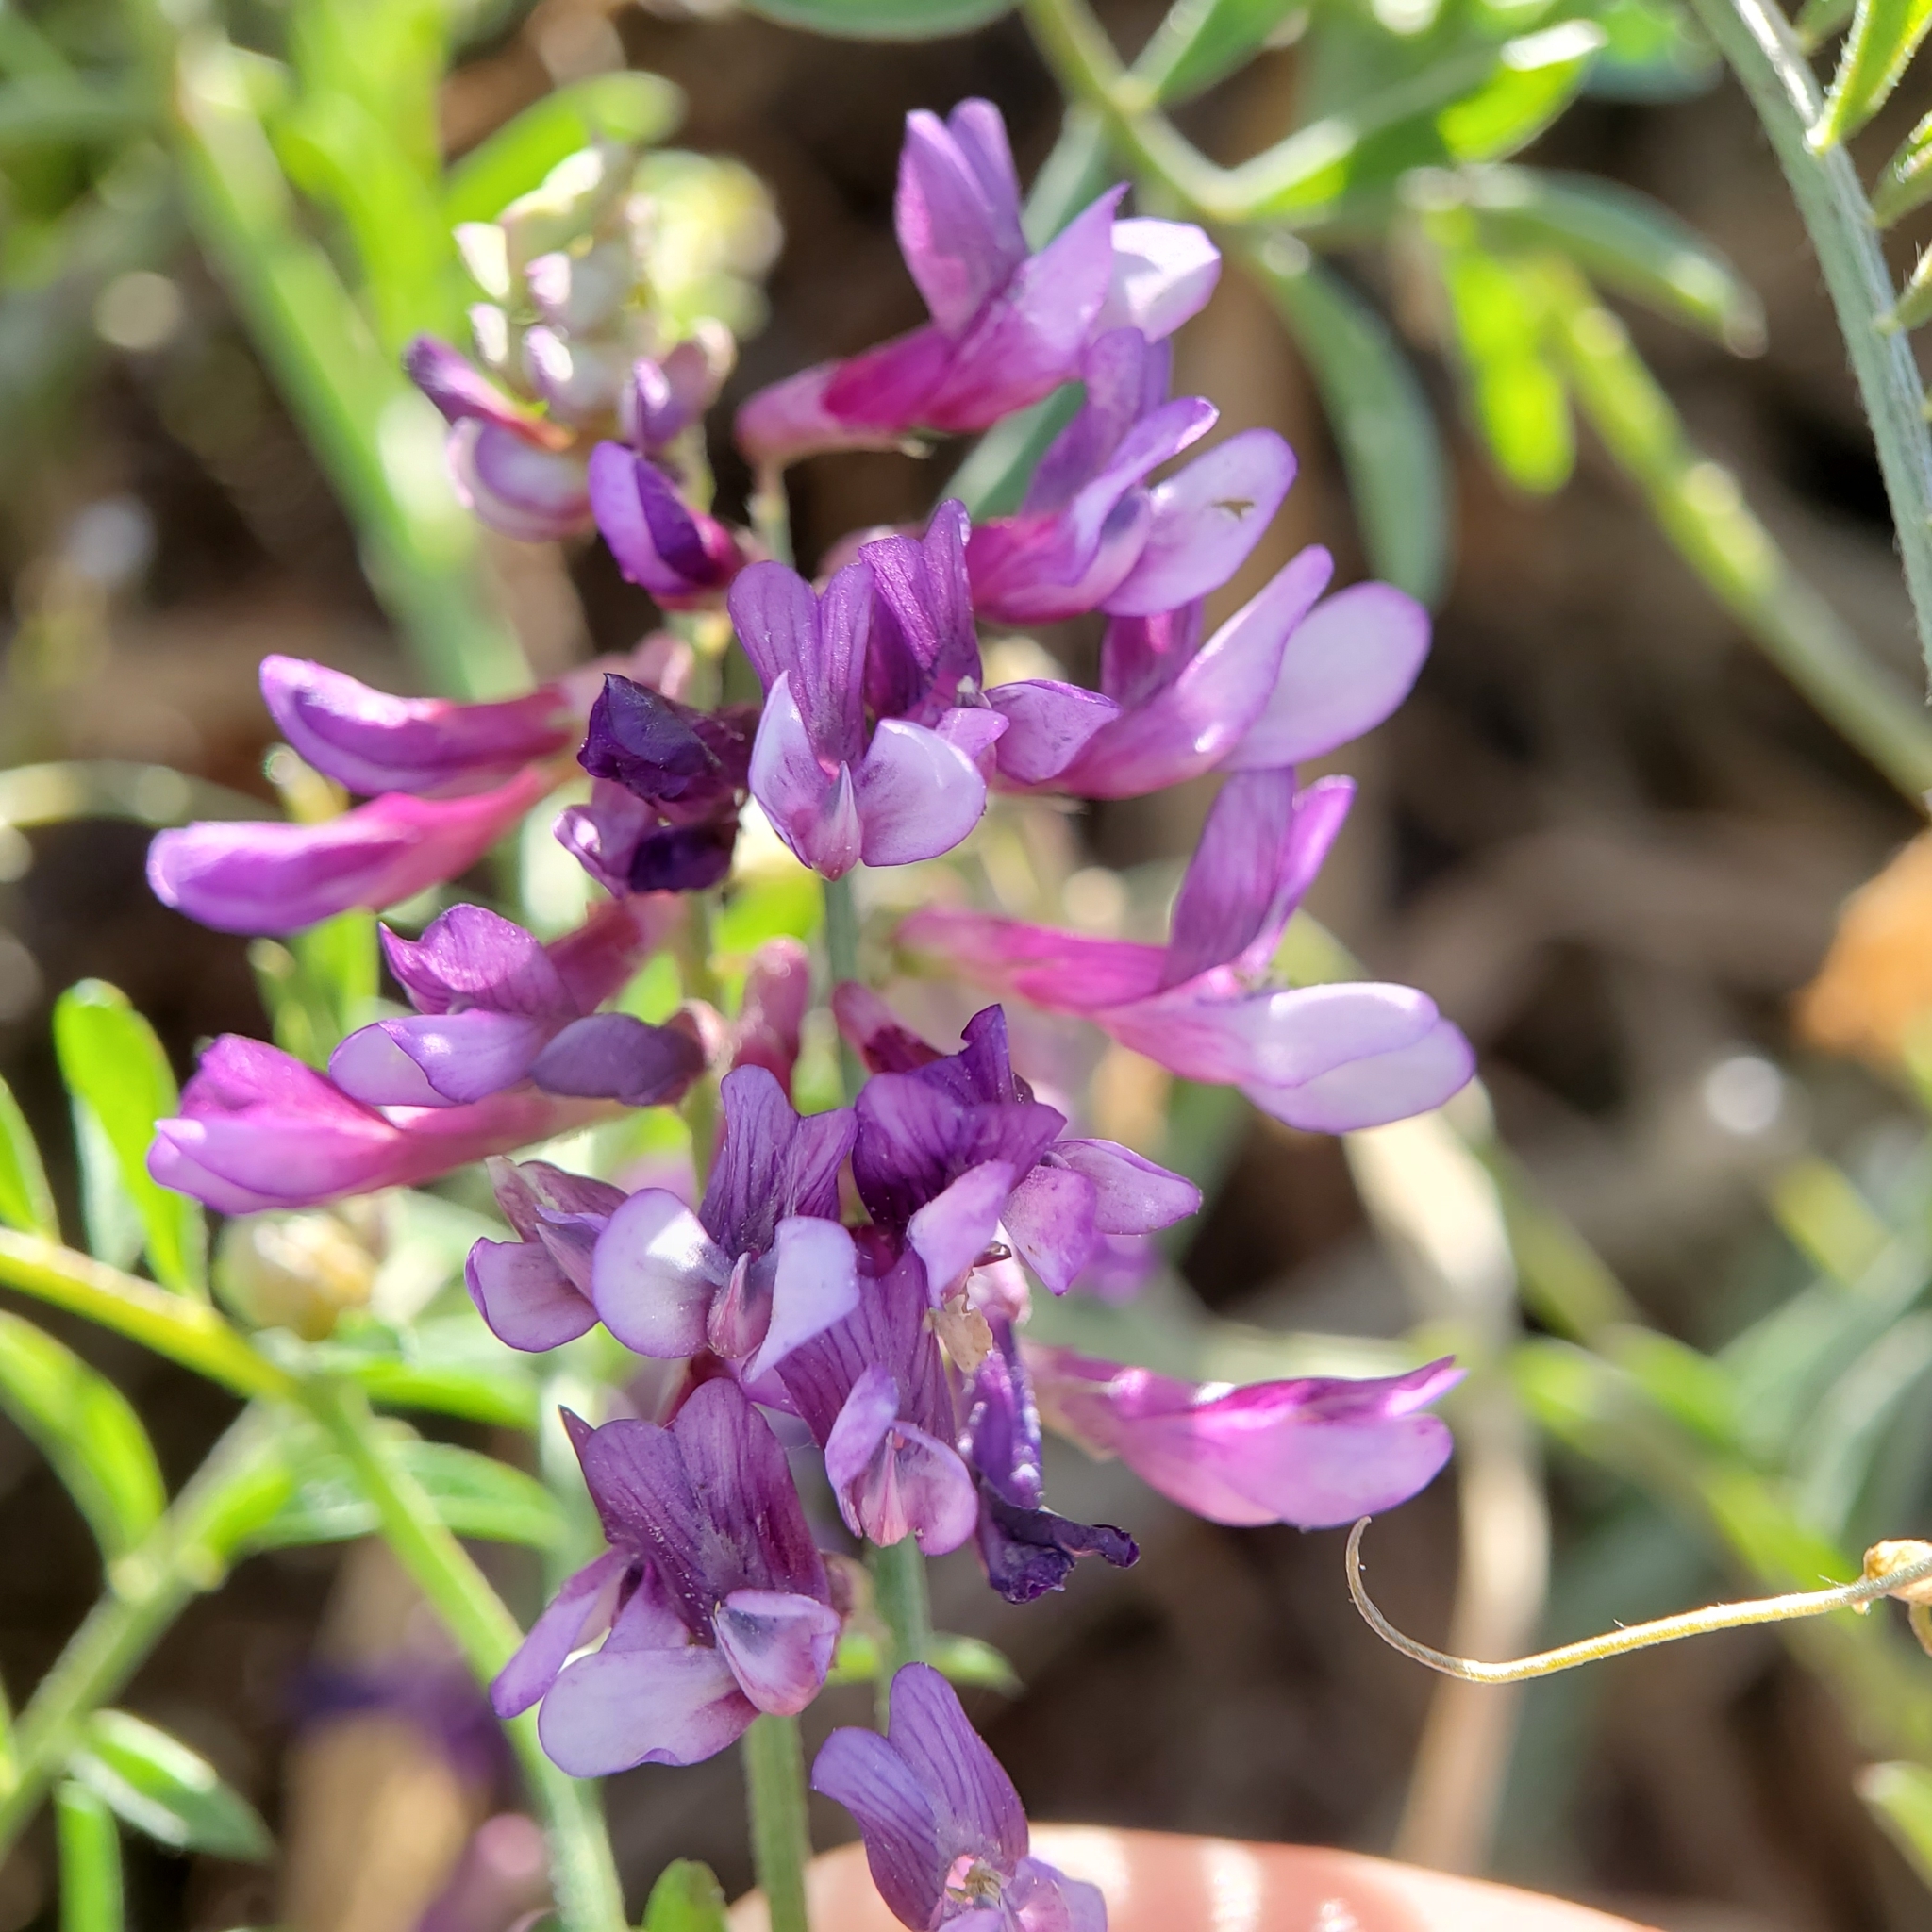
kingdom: Plantae
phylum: Tracheophyta
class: Magnoliopsida
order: Fabales
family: Fabaceae
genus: Vicia
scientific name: Vicia villosa
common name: Fodder vetch
